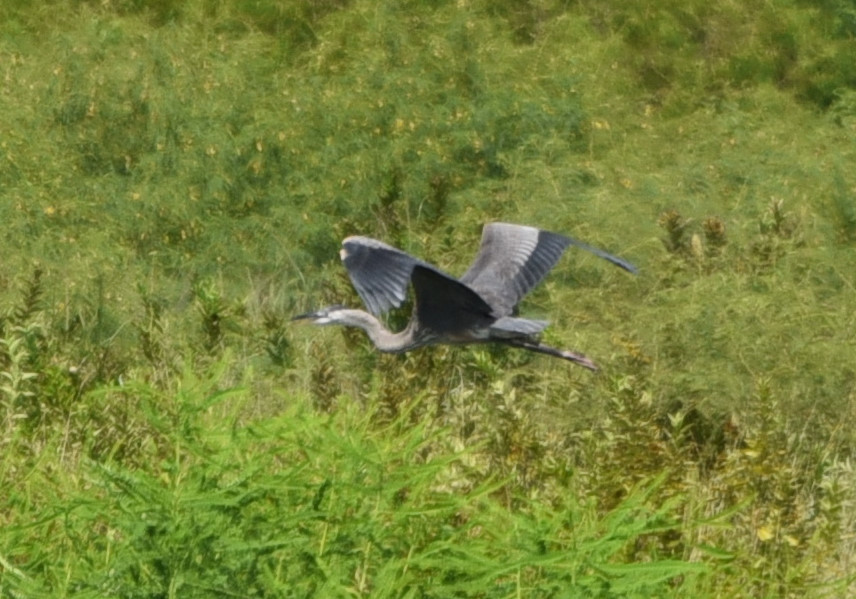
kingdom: Animalia
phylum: Chordata
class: Aves
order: Pelecaniformes
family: Ardeidae
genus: Ardea
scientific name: Ardea herodias
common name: Great blue heron
